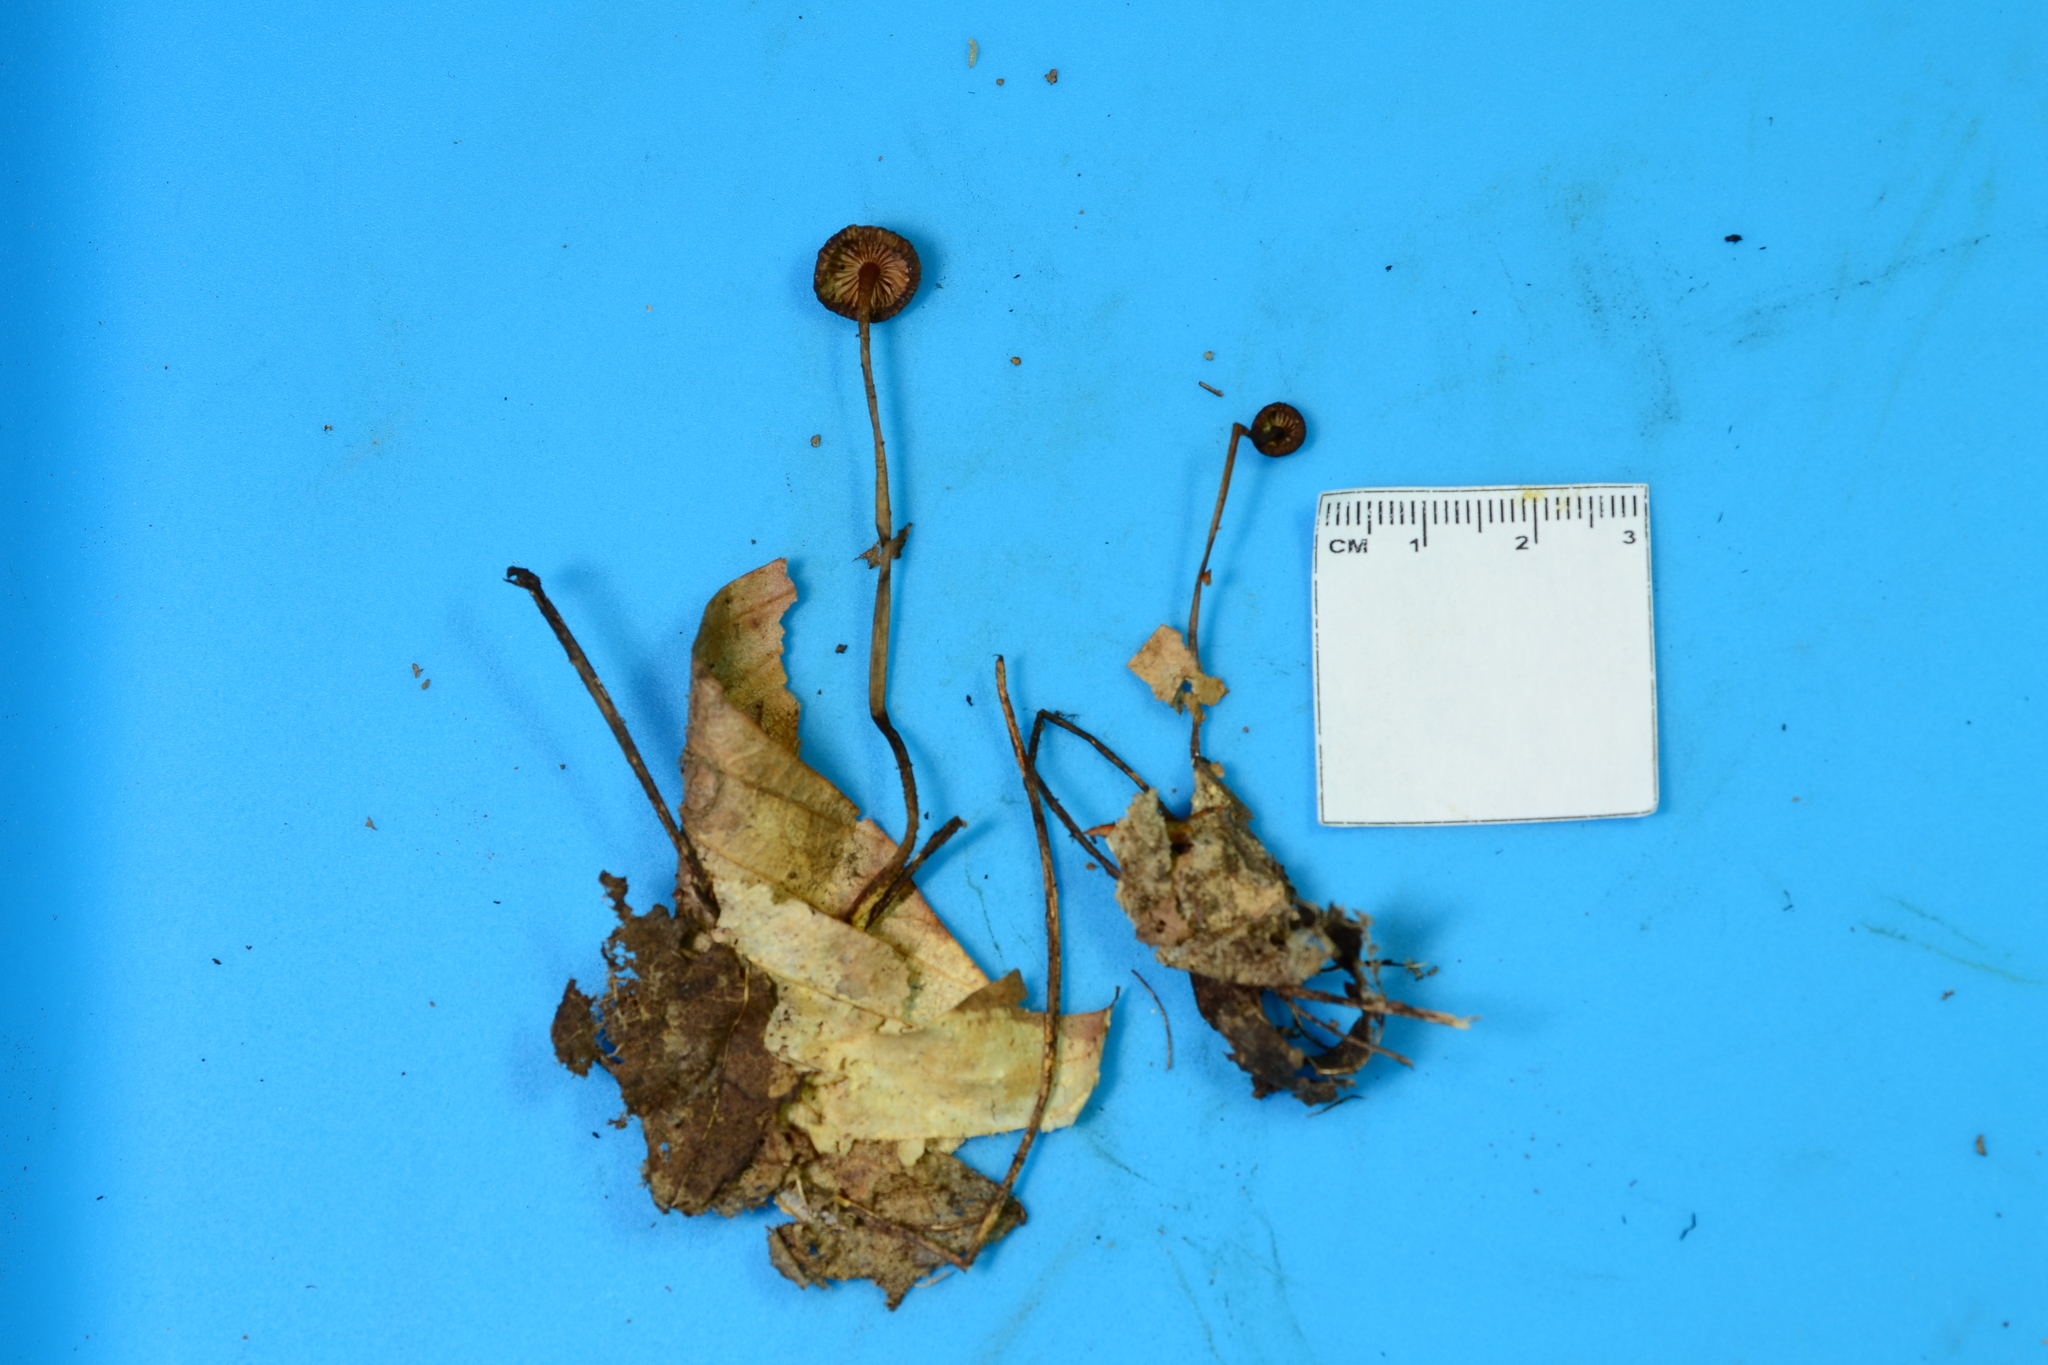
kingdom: Fungi
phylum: Basidiomycota
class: Agaricomycetes
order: Agaricales
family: Mycenaceae
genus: Mycena
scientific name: Mycena atkinsoniana
